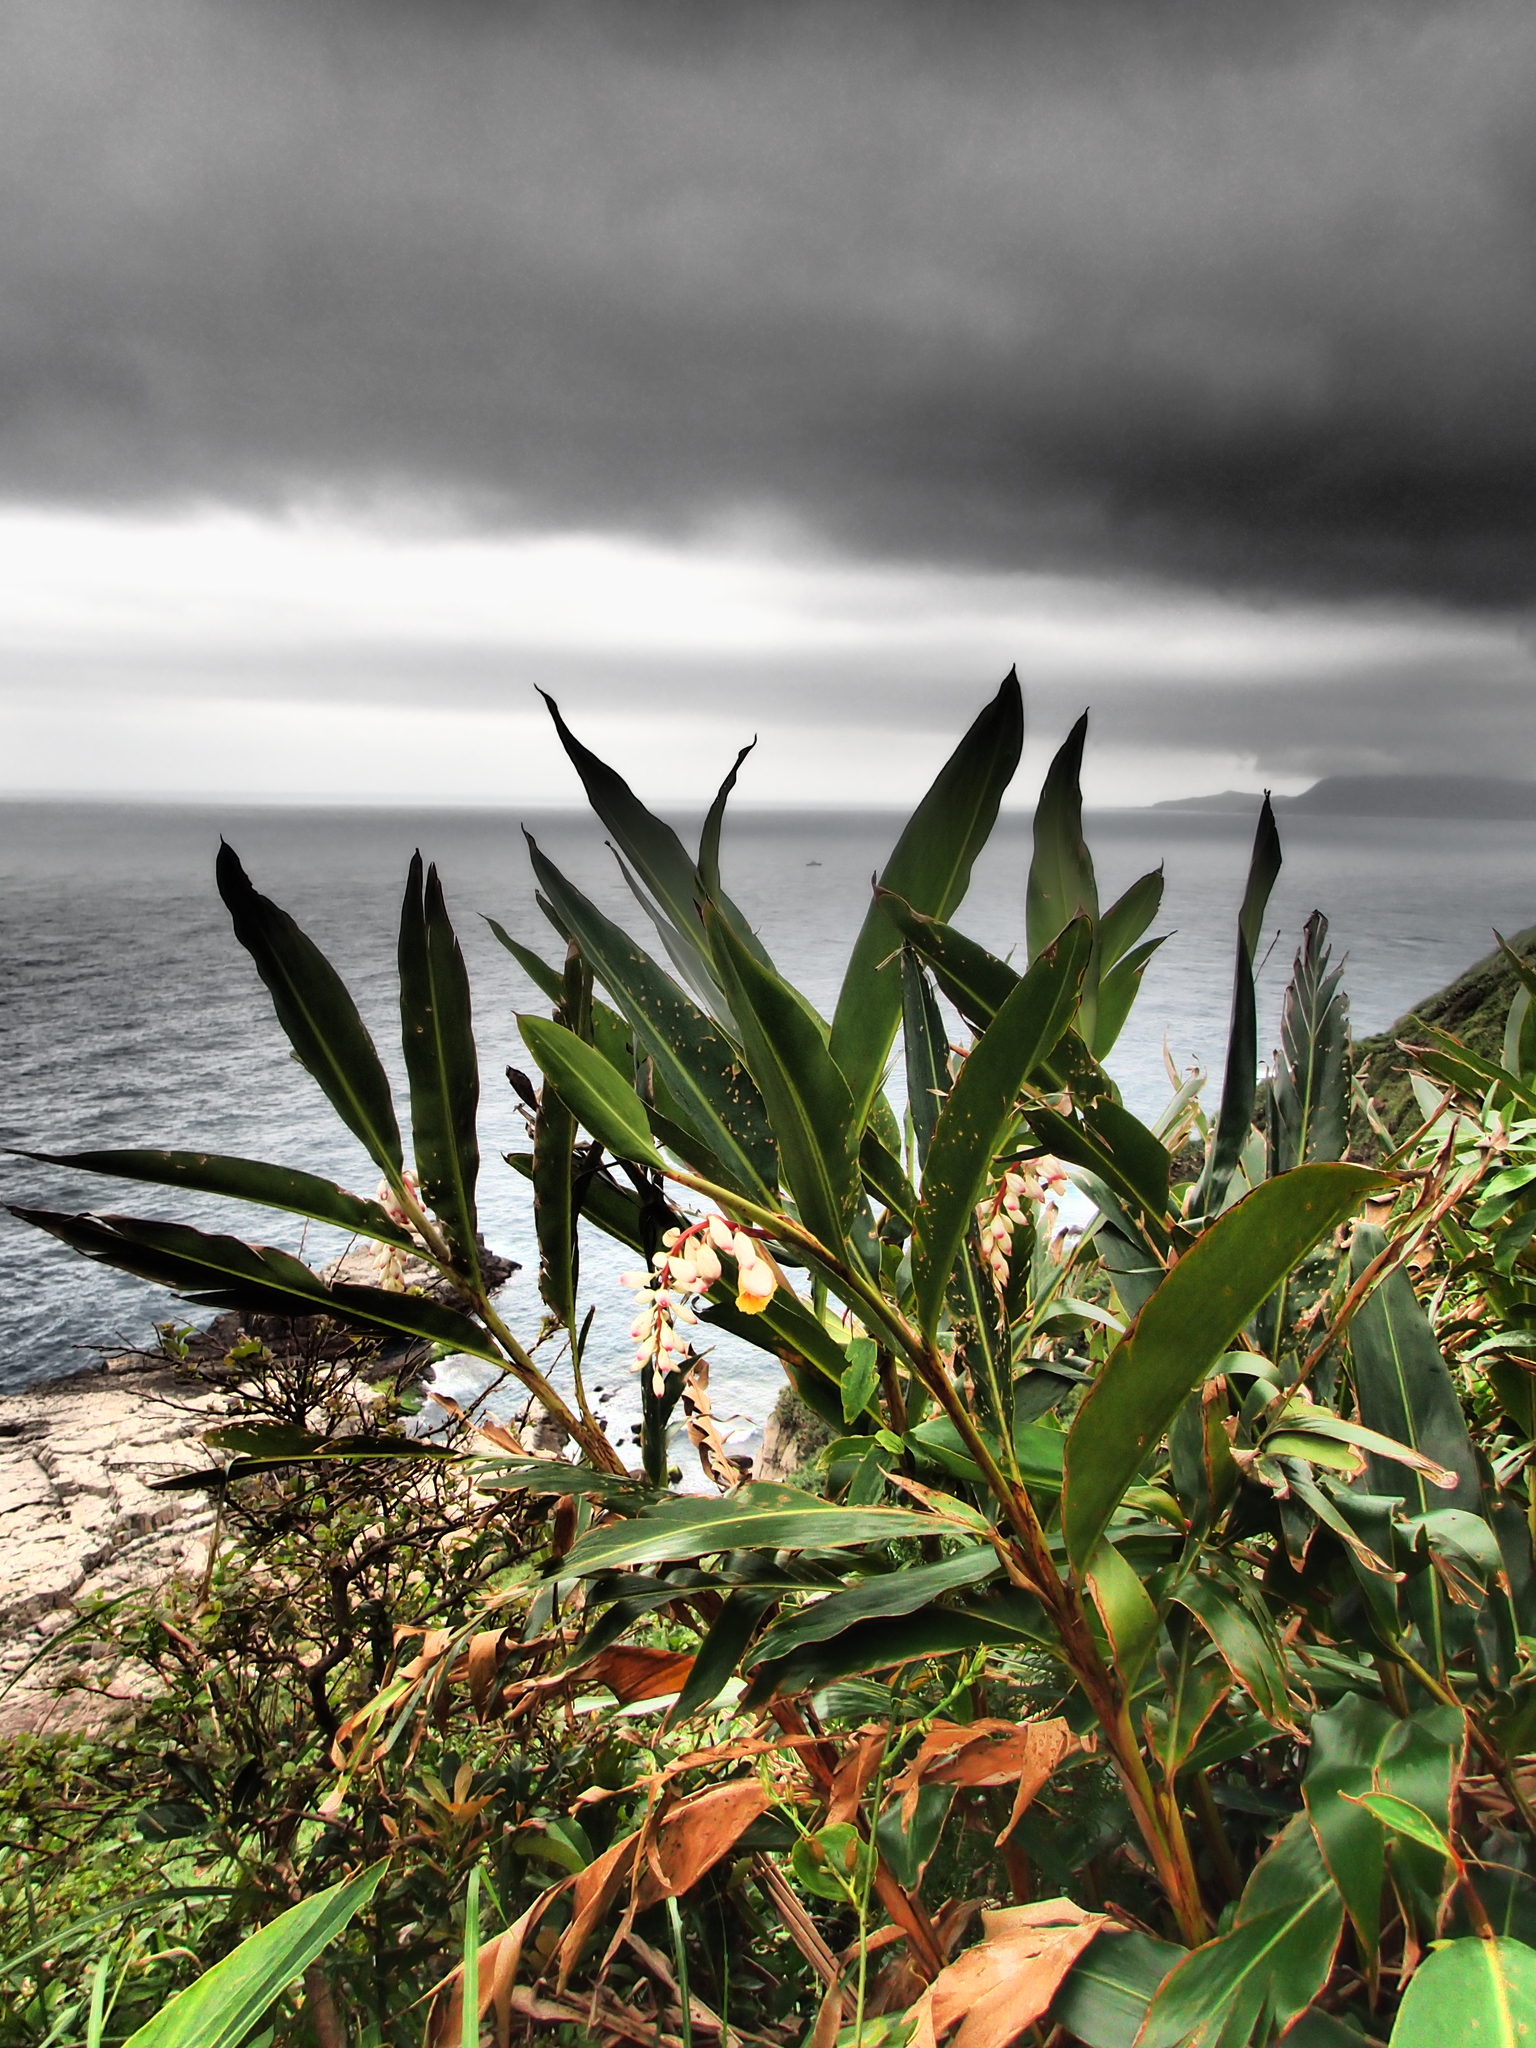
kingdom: Plantae
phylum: Tracheophyta
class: Liliopsida
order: Zingiberales
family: Zingiberaceae
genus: Alpinia
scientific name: Alpinia zerumbet
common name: Shellplant
